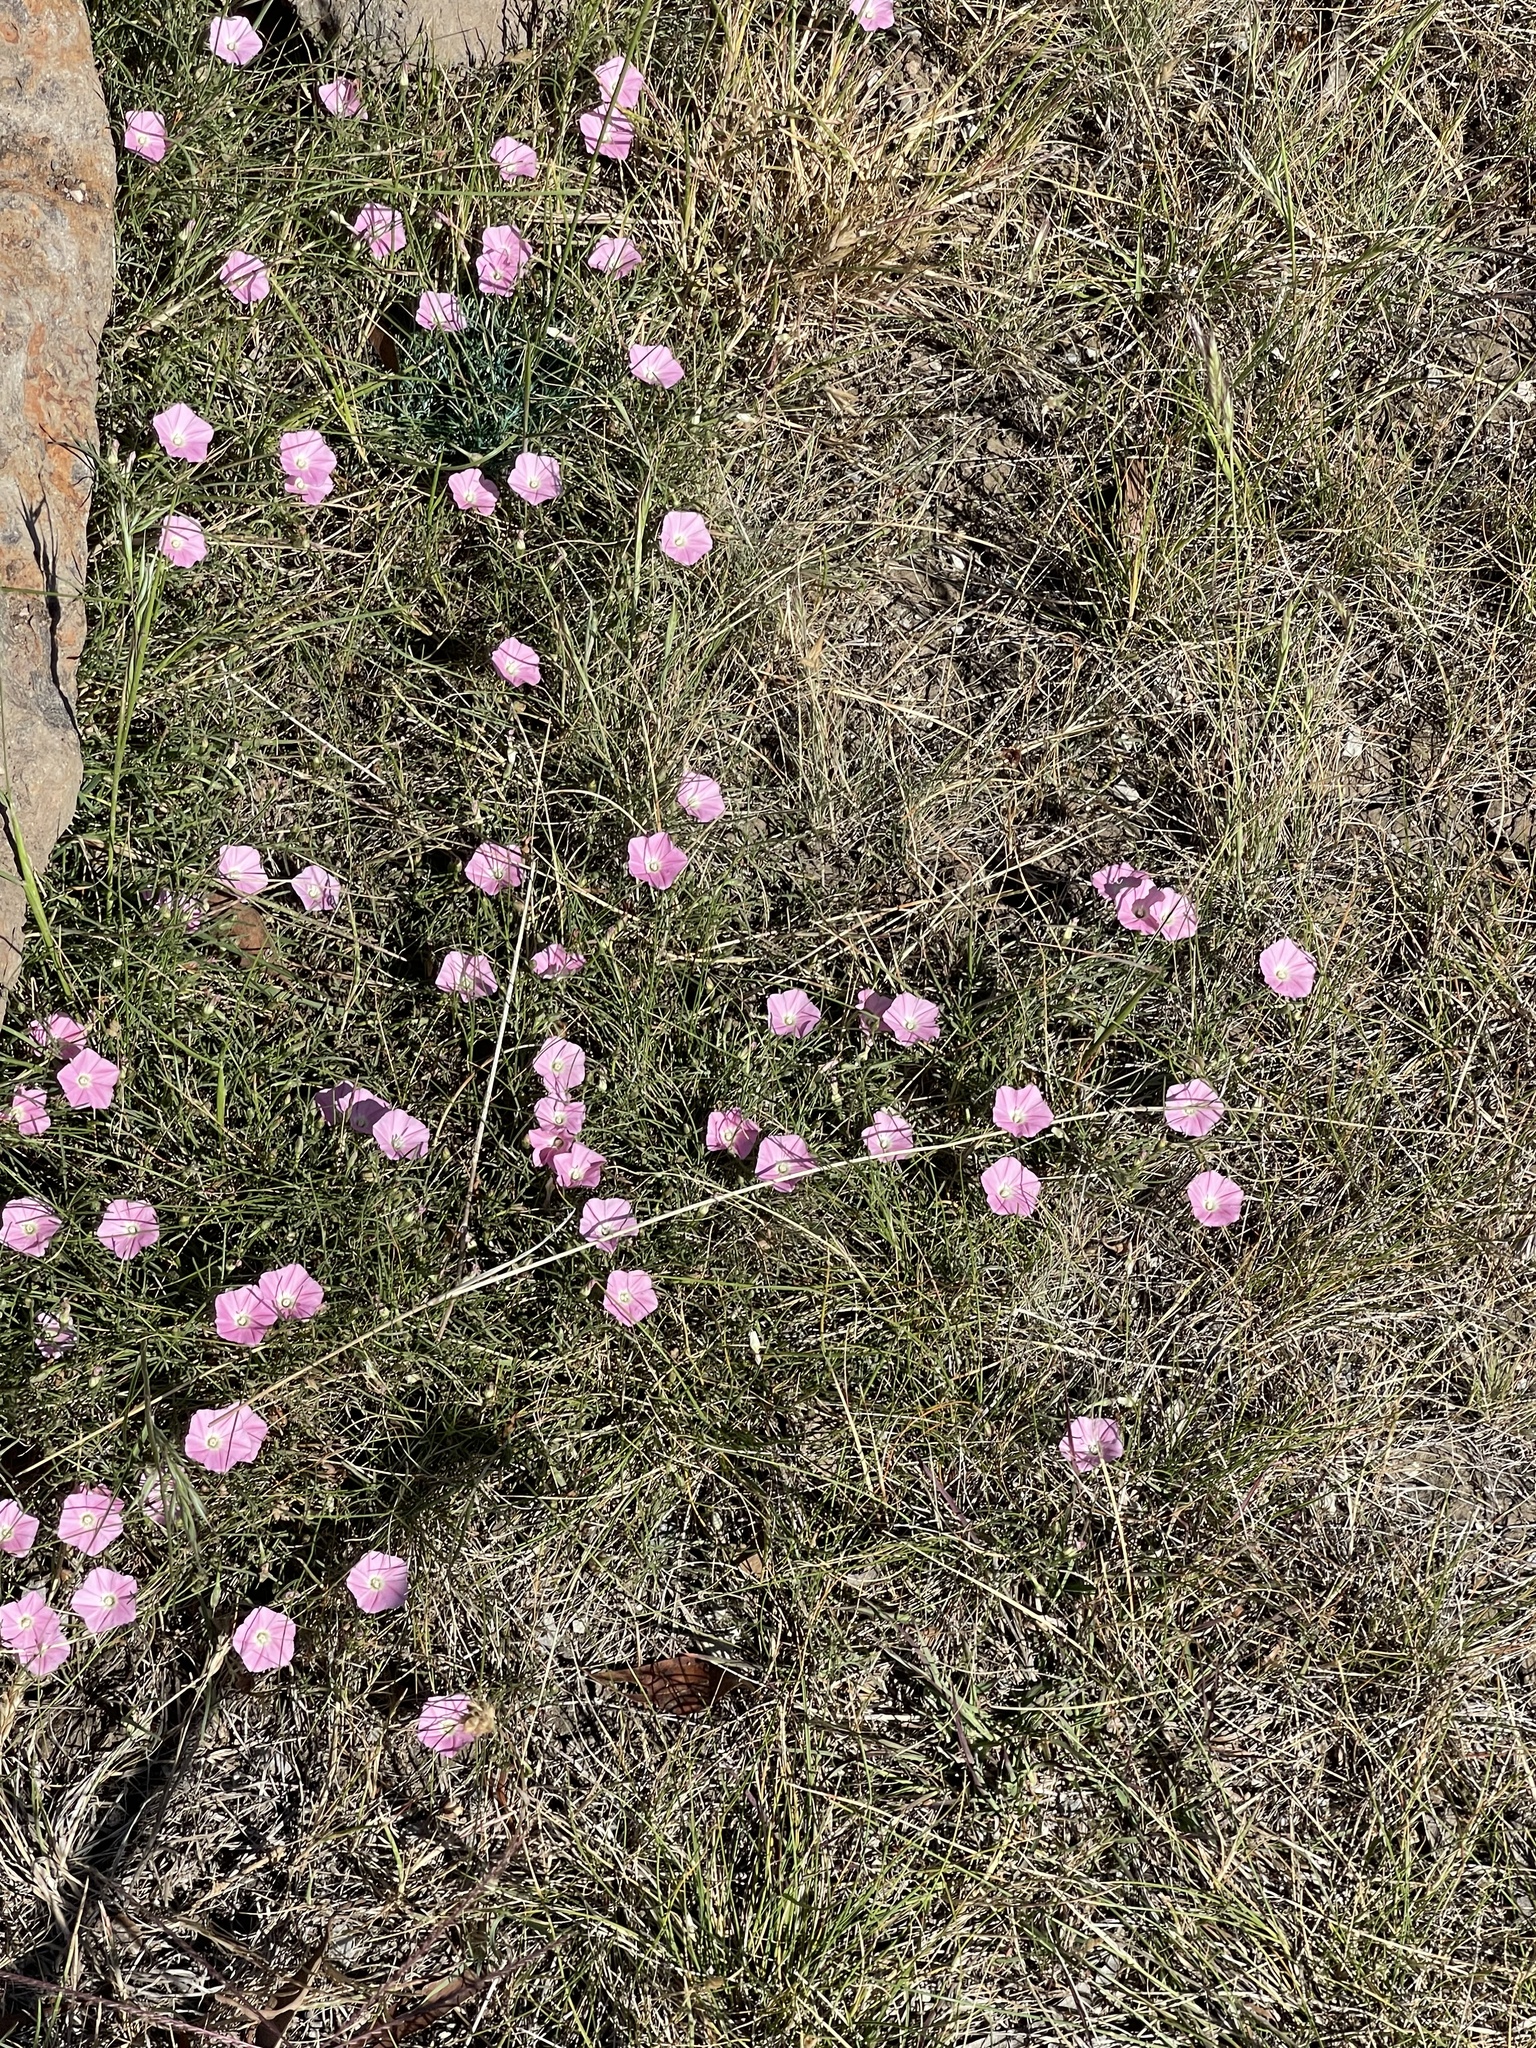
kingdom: Plantae
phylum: Tracheophyta
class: Magnoliopsida
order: Solanales
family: Convolvulaceae
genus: Convolvulus
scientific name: Convolvulus angustissimus
